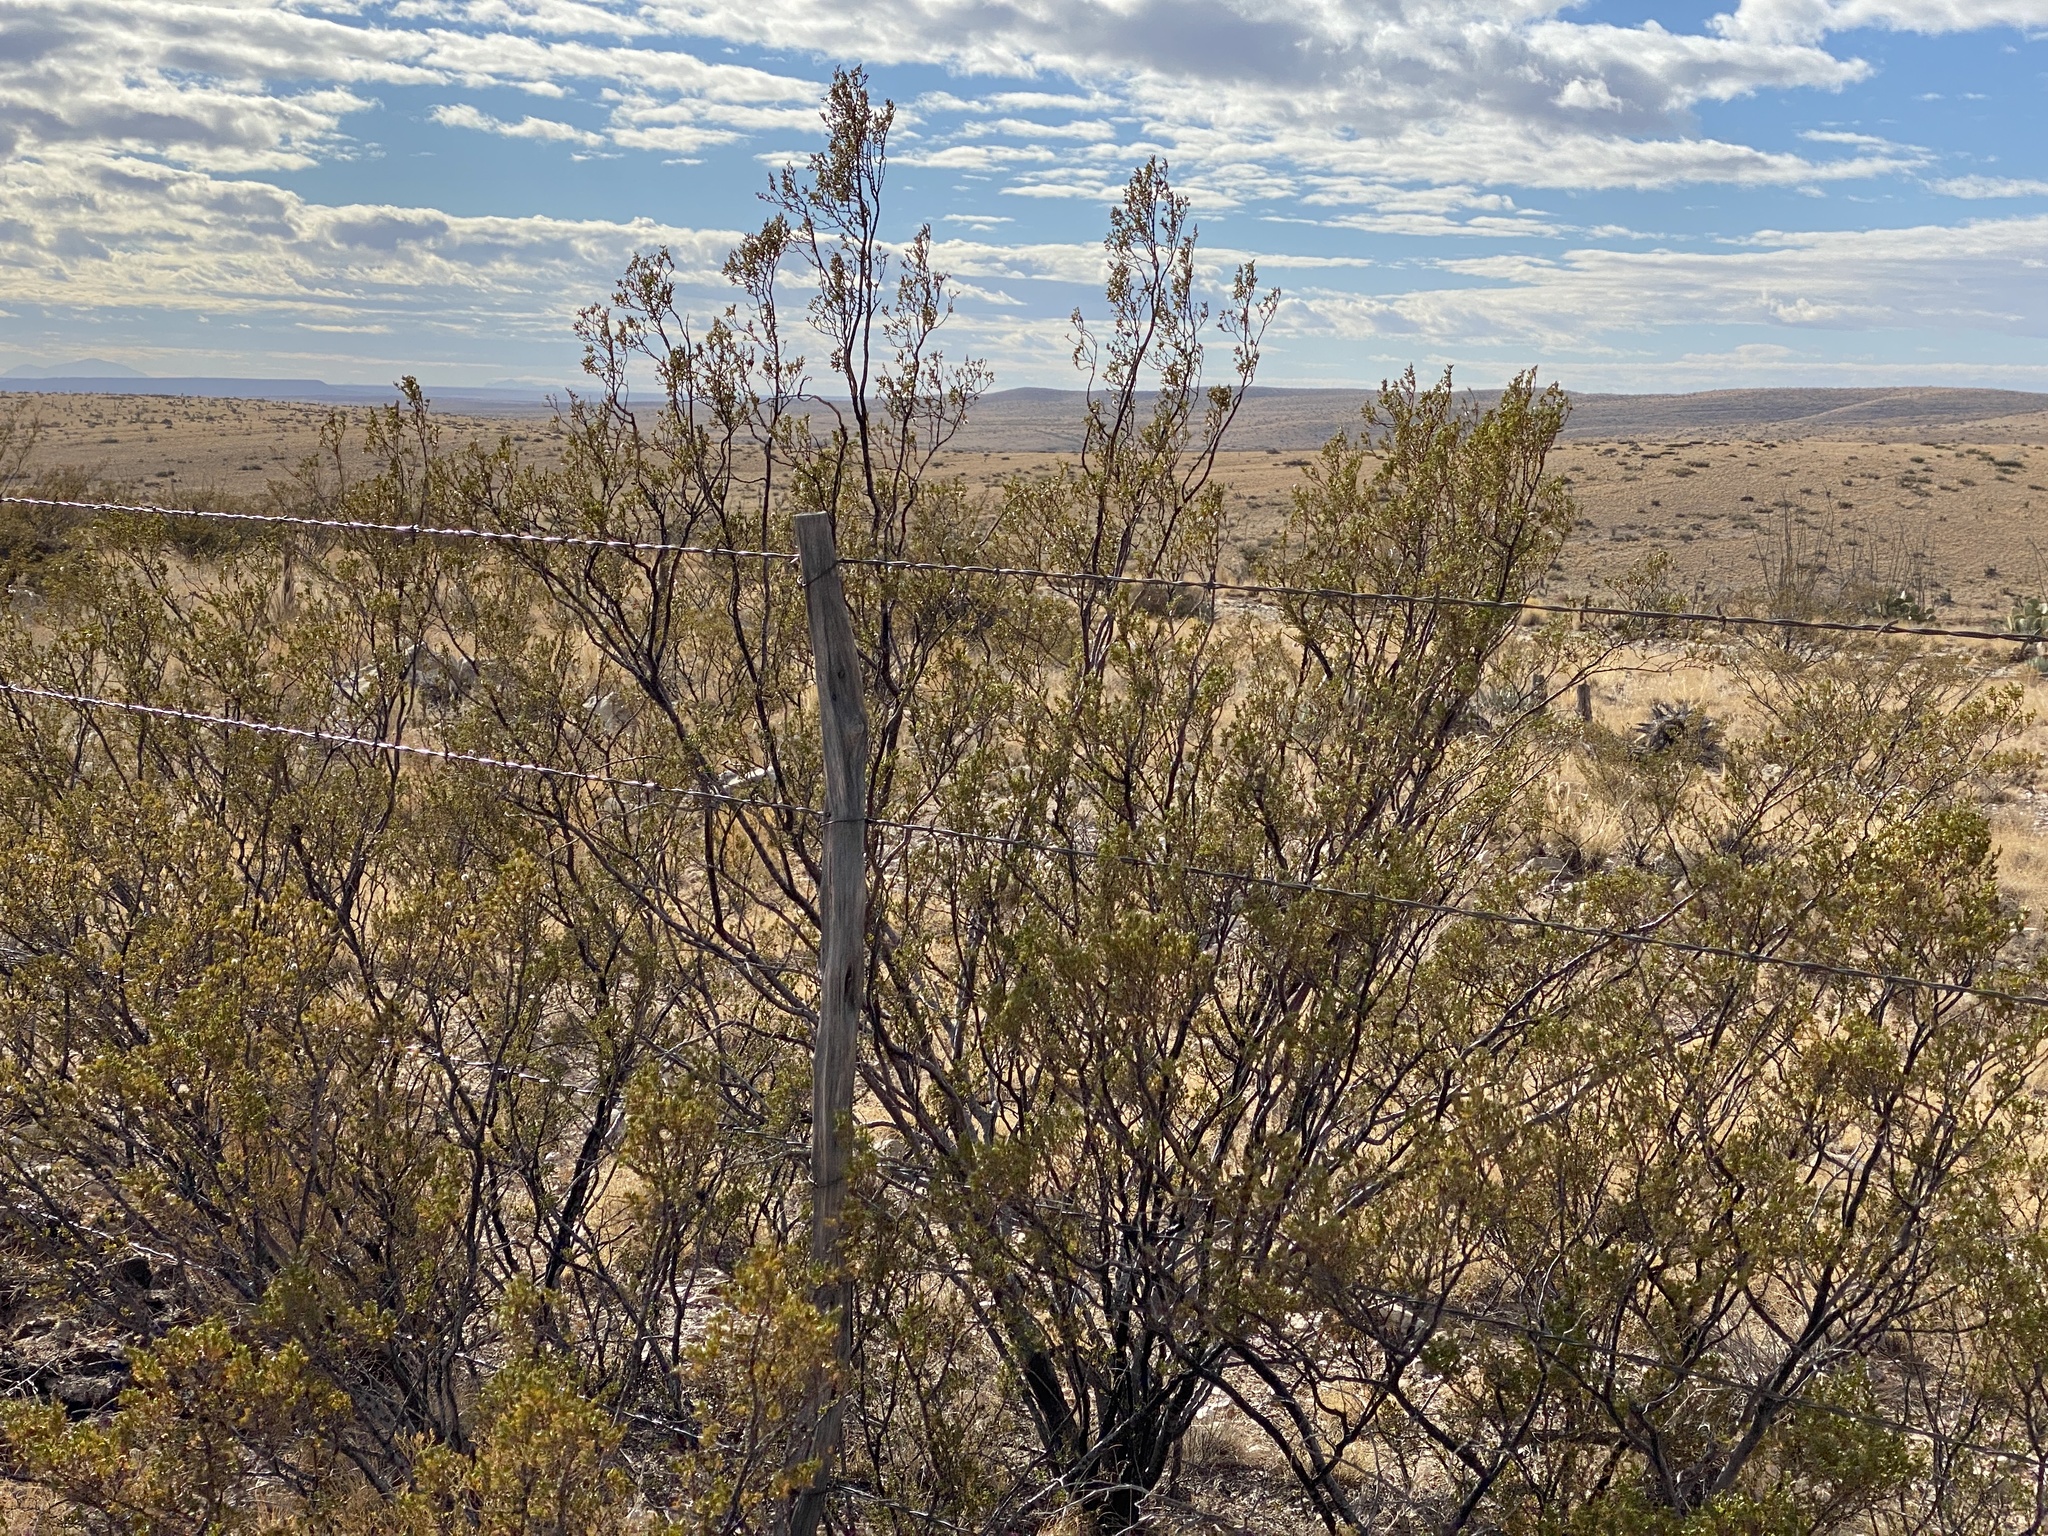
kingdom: Plantae
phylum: Tracheophyta
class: Magnoliopsida
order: Zygophyllales
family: Zygophyllaceae
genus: Larrea
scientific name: Larrea tridentata
